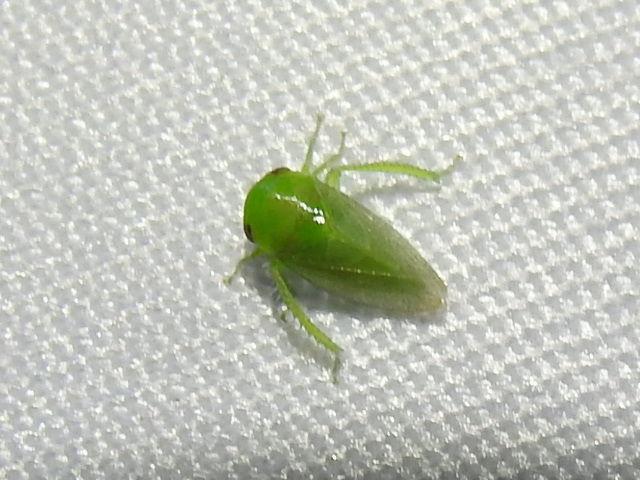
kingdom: Animalia
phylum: Arthropoda
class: Insecta
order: Hemiptera
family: Cicadellidae
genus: Penestragania
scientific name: Penestragania robusta
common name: Robust leafhopper
